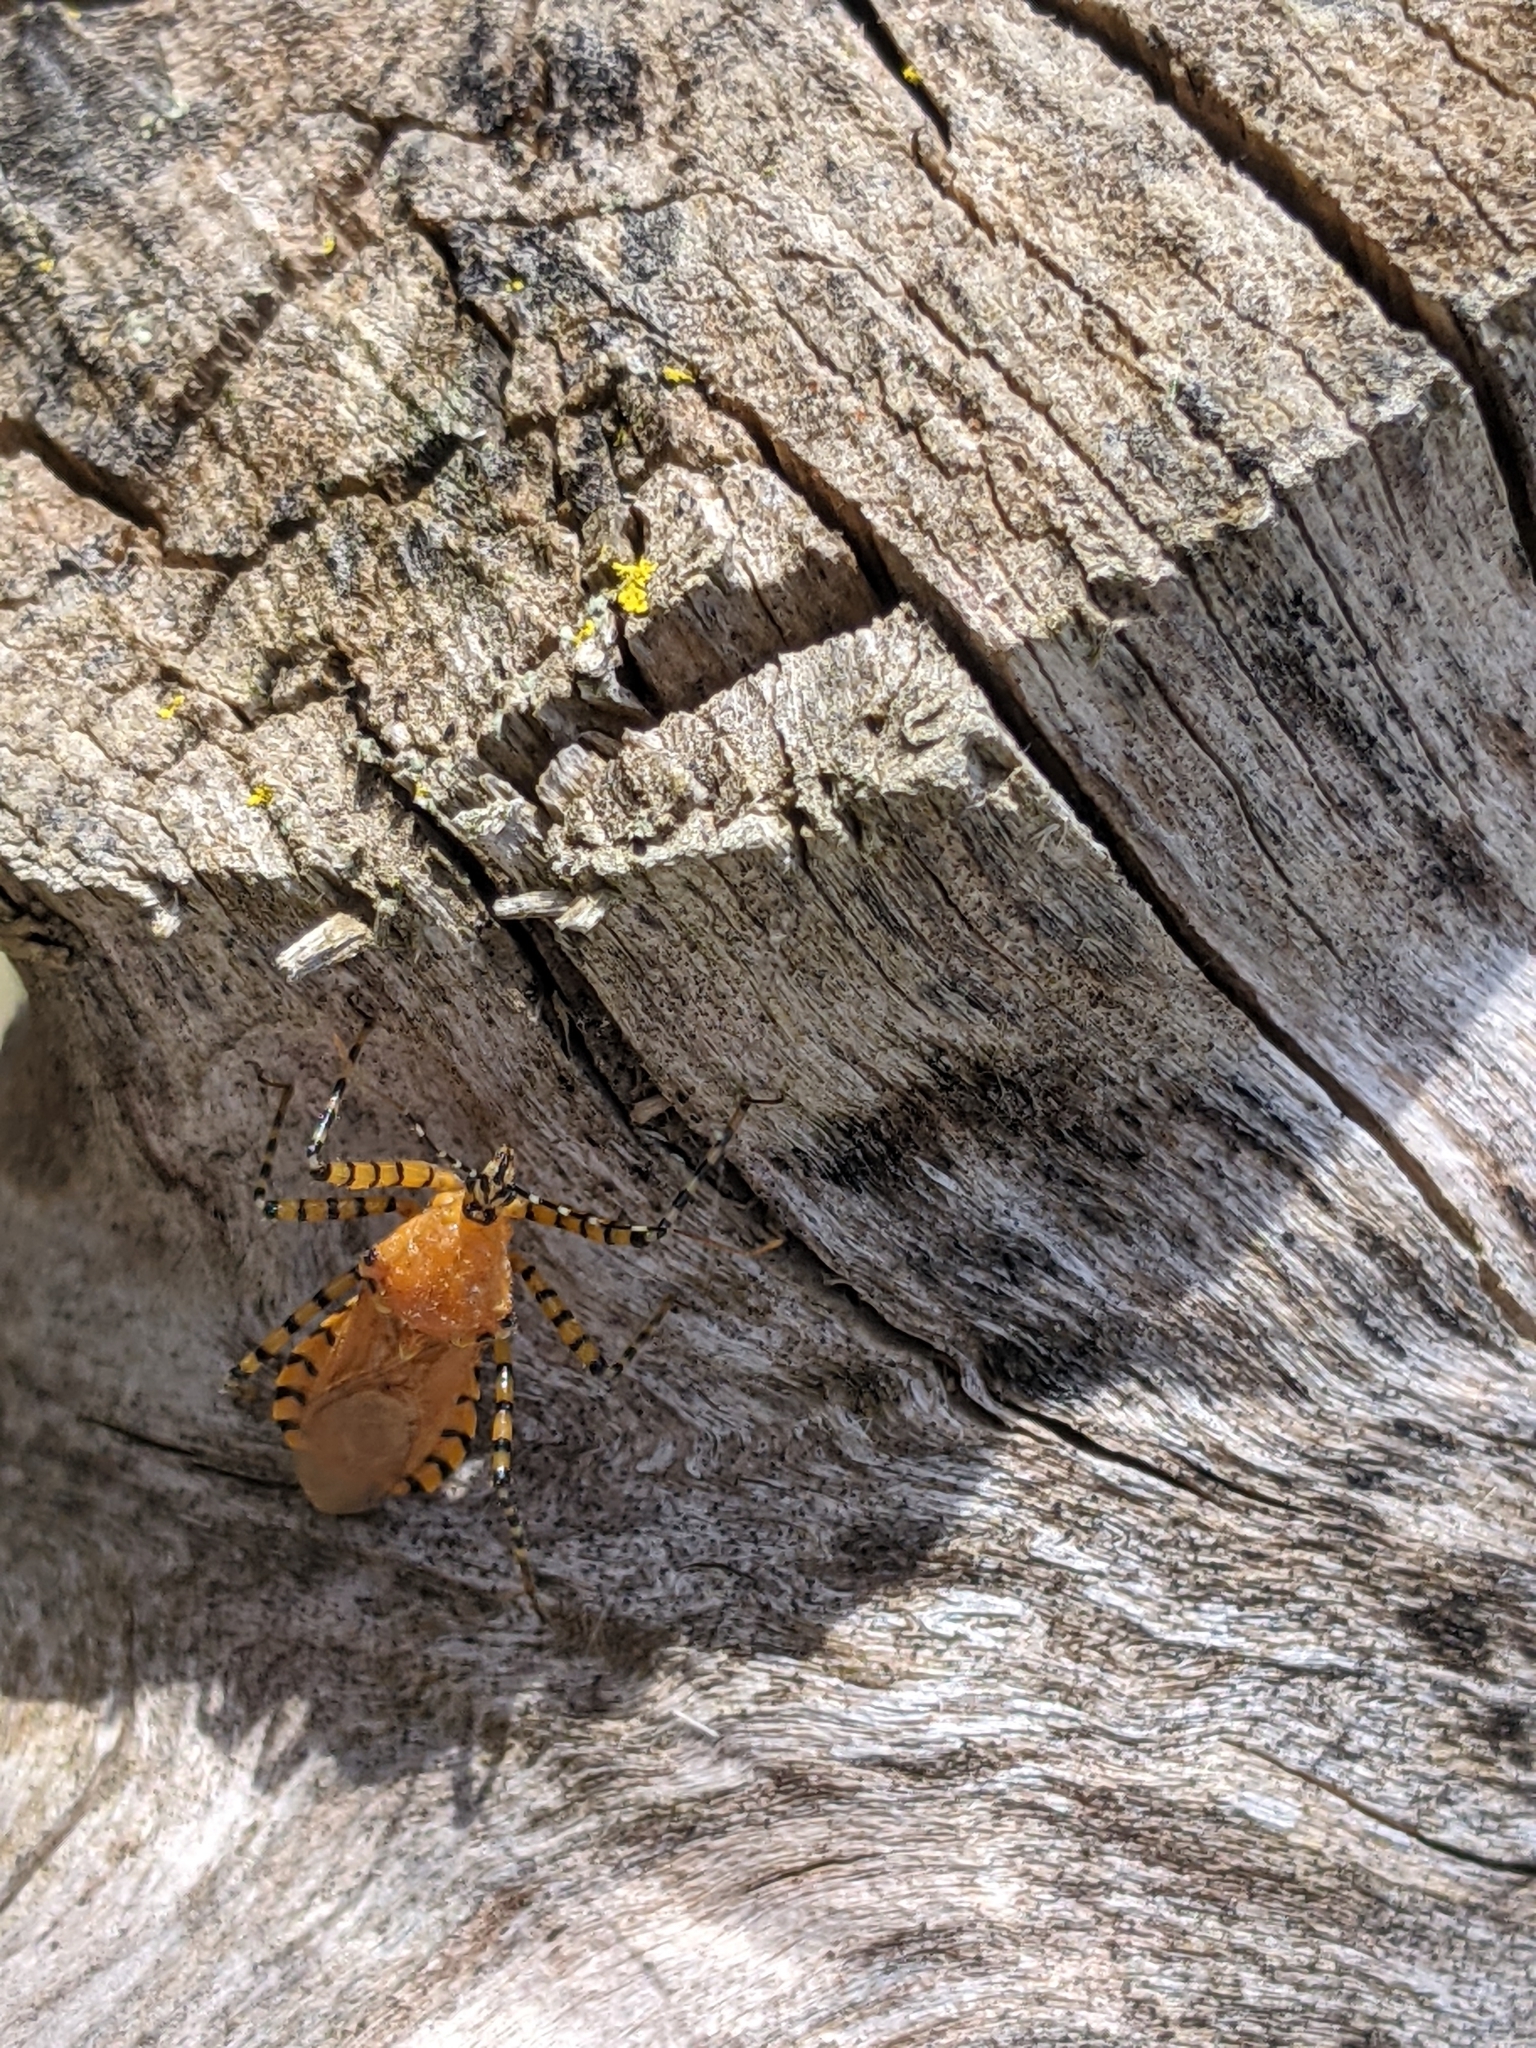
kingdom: Animalia
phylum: Arthropoda
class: Insecta
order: Hemiptera
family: Reduviidae
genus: Pselliopus
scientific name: Pselliopus barberi
